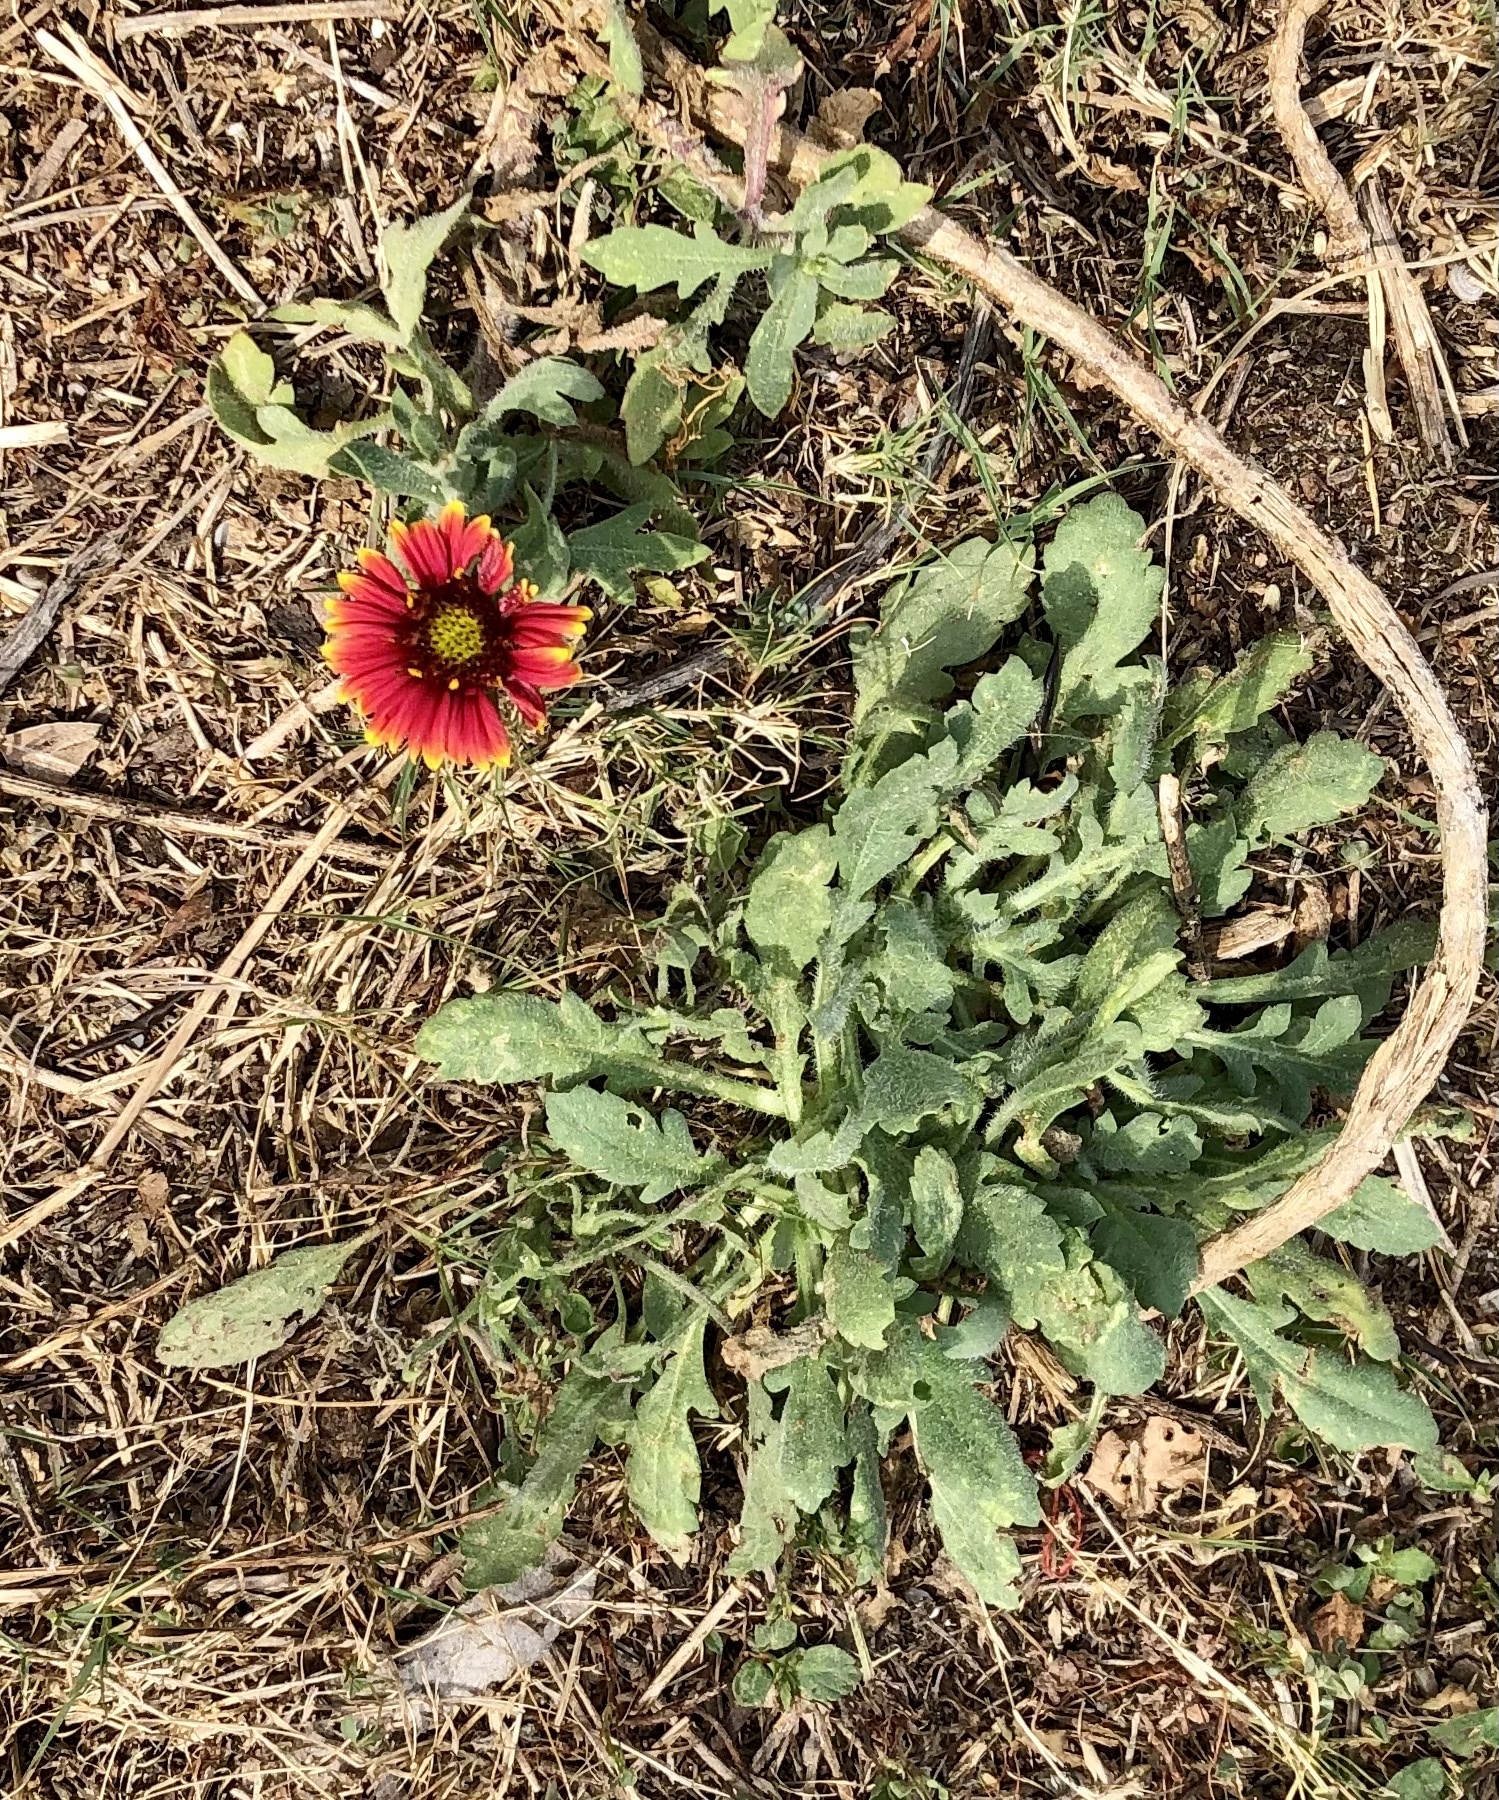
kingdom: Plantae
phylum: Tracheophyta
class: Magnoliopsida
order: Asterales
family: Asteraceae
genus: Gaillardia
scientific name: Gaillardia pulchella
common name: Firewheel
